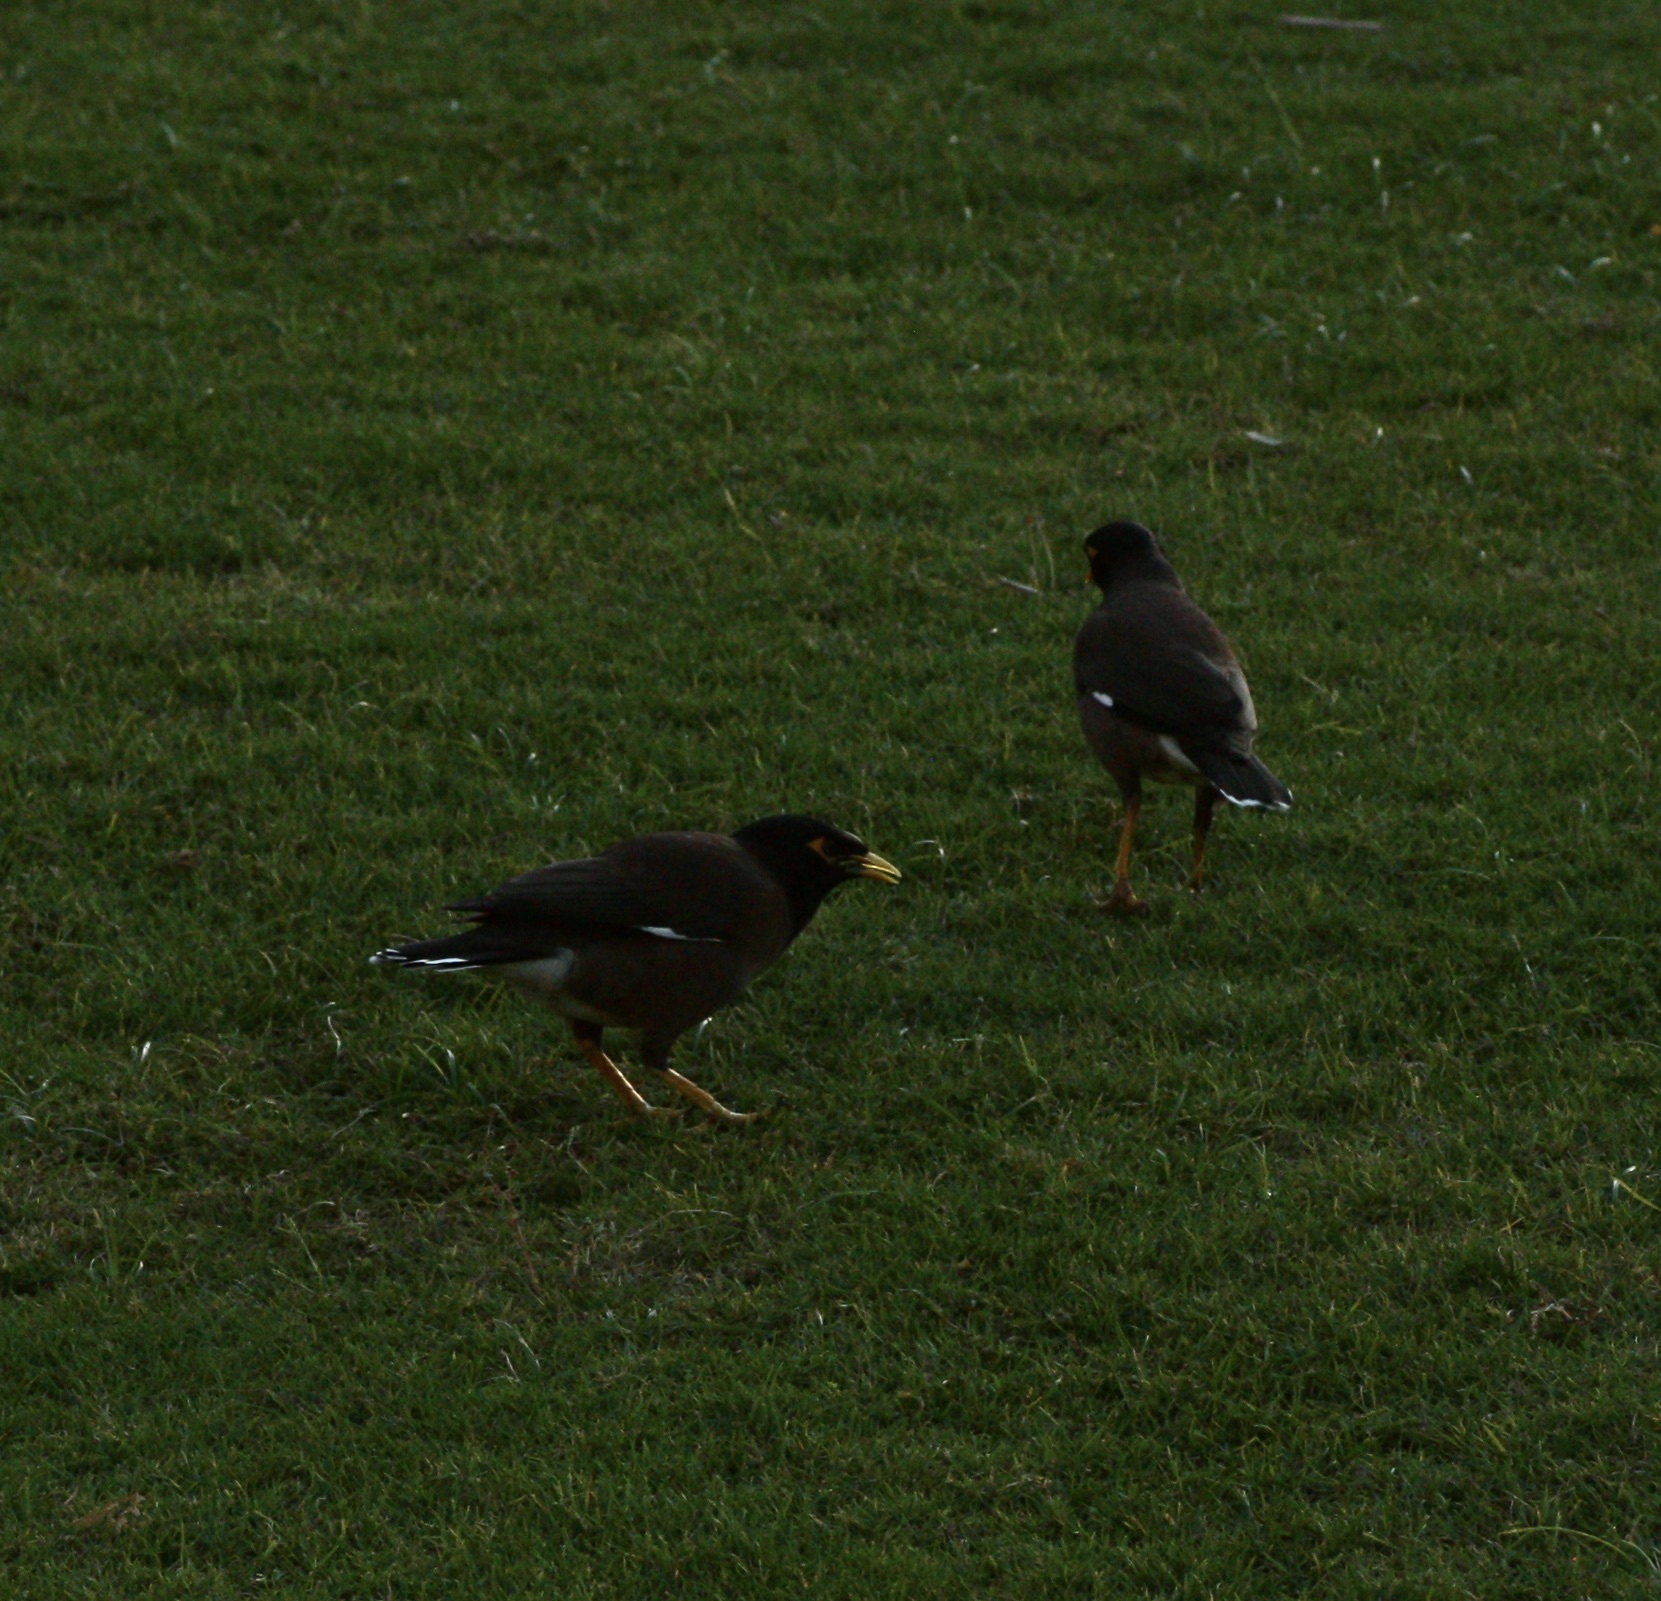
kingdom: Animalia
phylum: Chordata
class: Aves
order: Passeriformes
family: Sturnidae
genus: Acridotheres
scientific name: Acridotheres tristis
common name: Common myna
